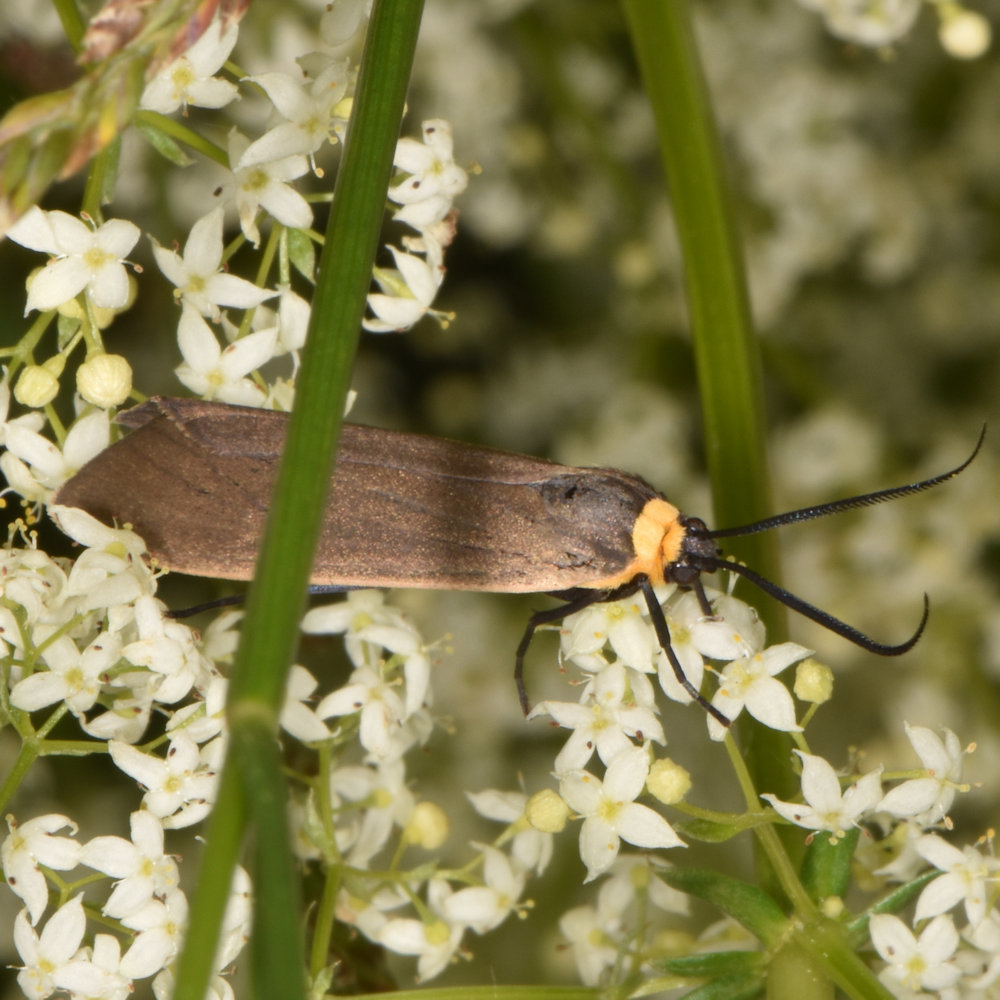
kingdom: Animalia
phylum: Arthropoda
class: Insecta
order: Lepidoptera
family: Erebidae
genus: Cisseps
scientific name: Cisseps fulvicollis
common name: Yellow-collared scape moth
